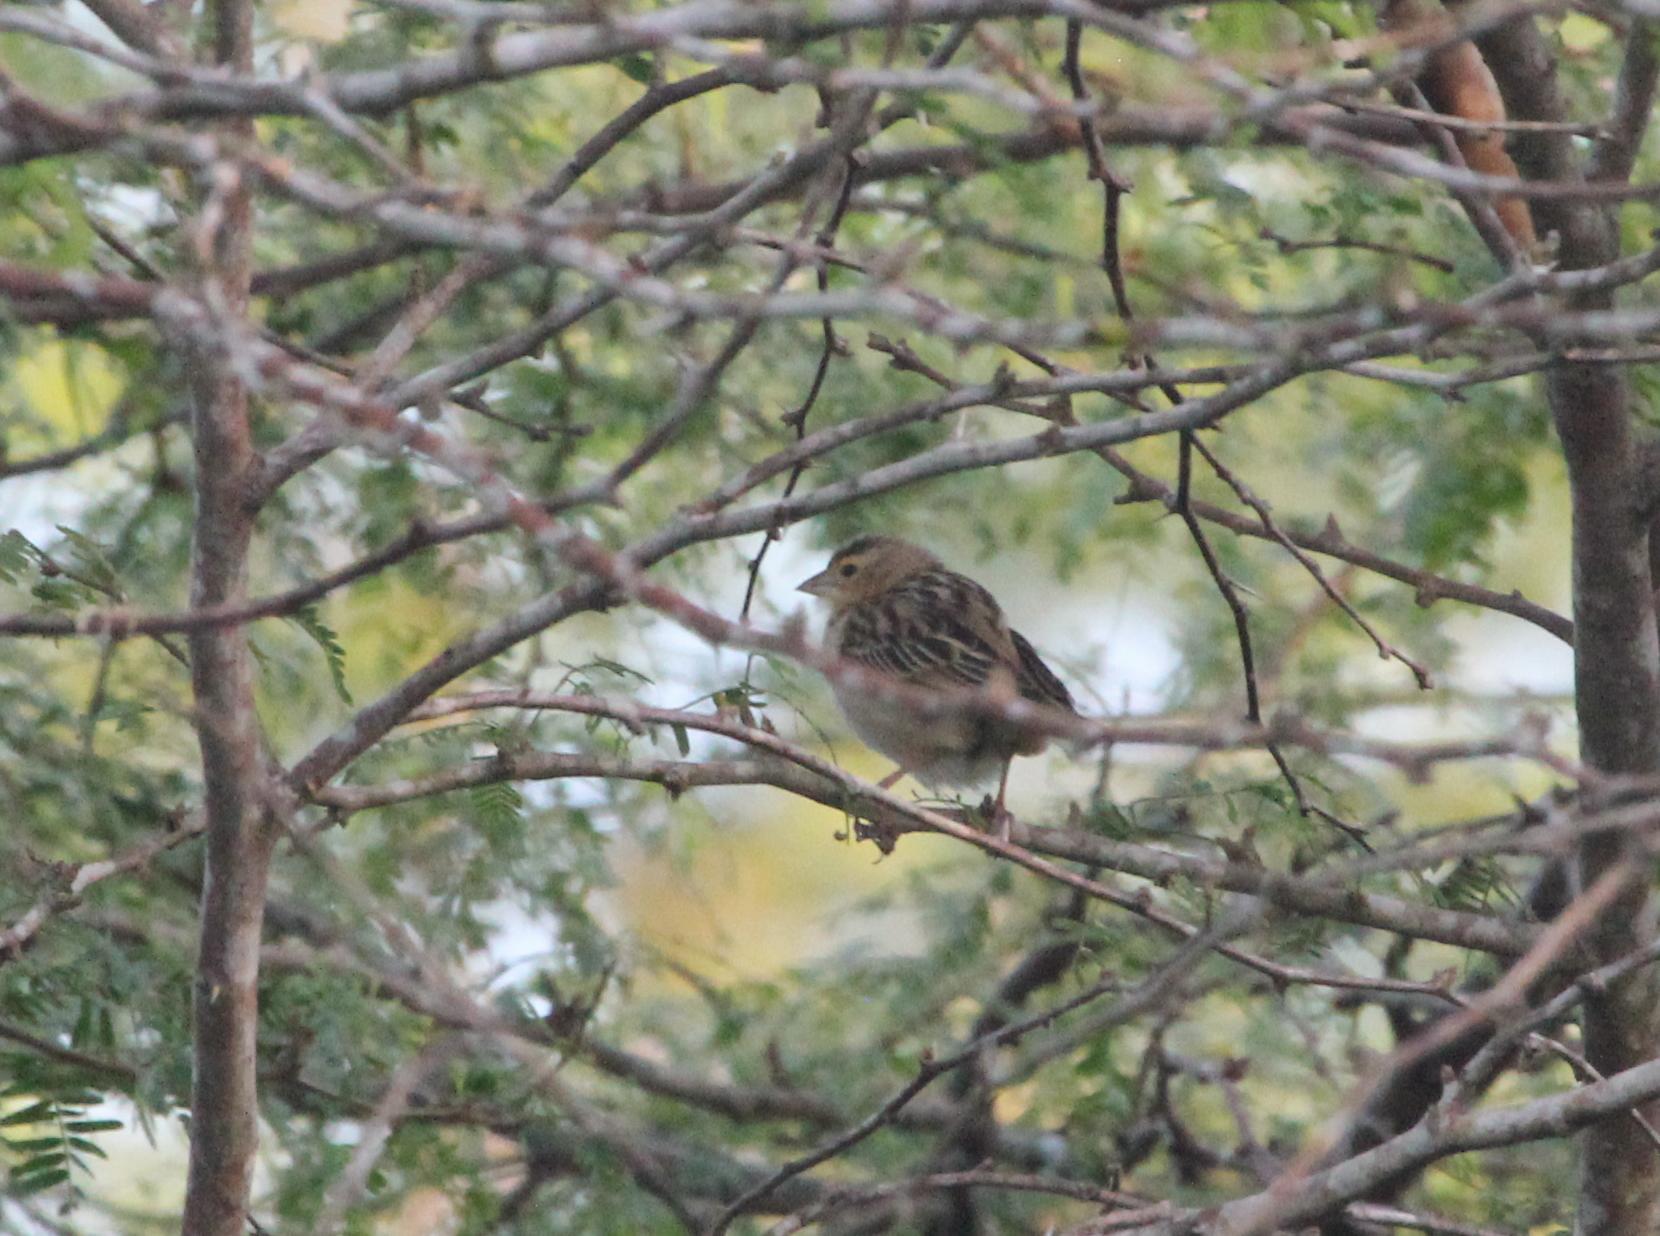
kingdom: Animalia
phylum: Chordata
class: Aves
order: Passeriformes
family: Ploceidae
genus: Euplectes
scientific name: Euplectes franciscanus
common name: Northern red bishop
